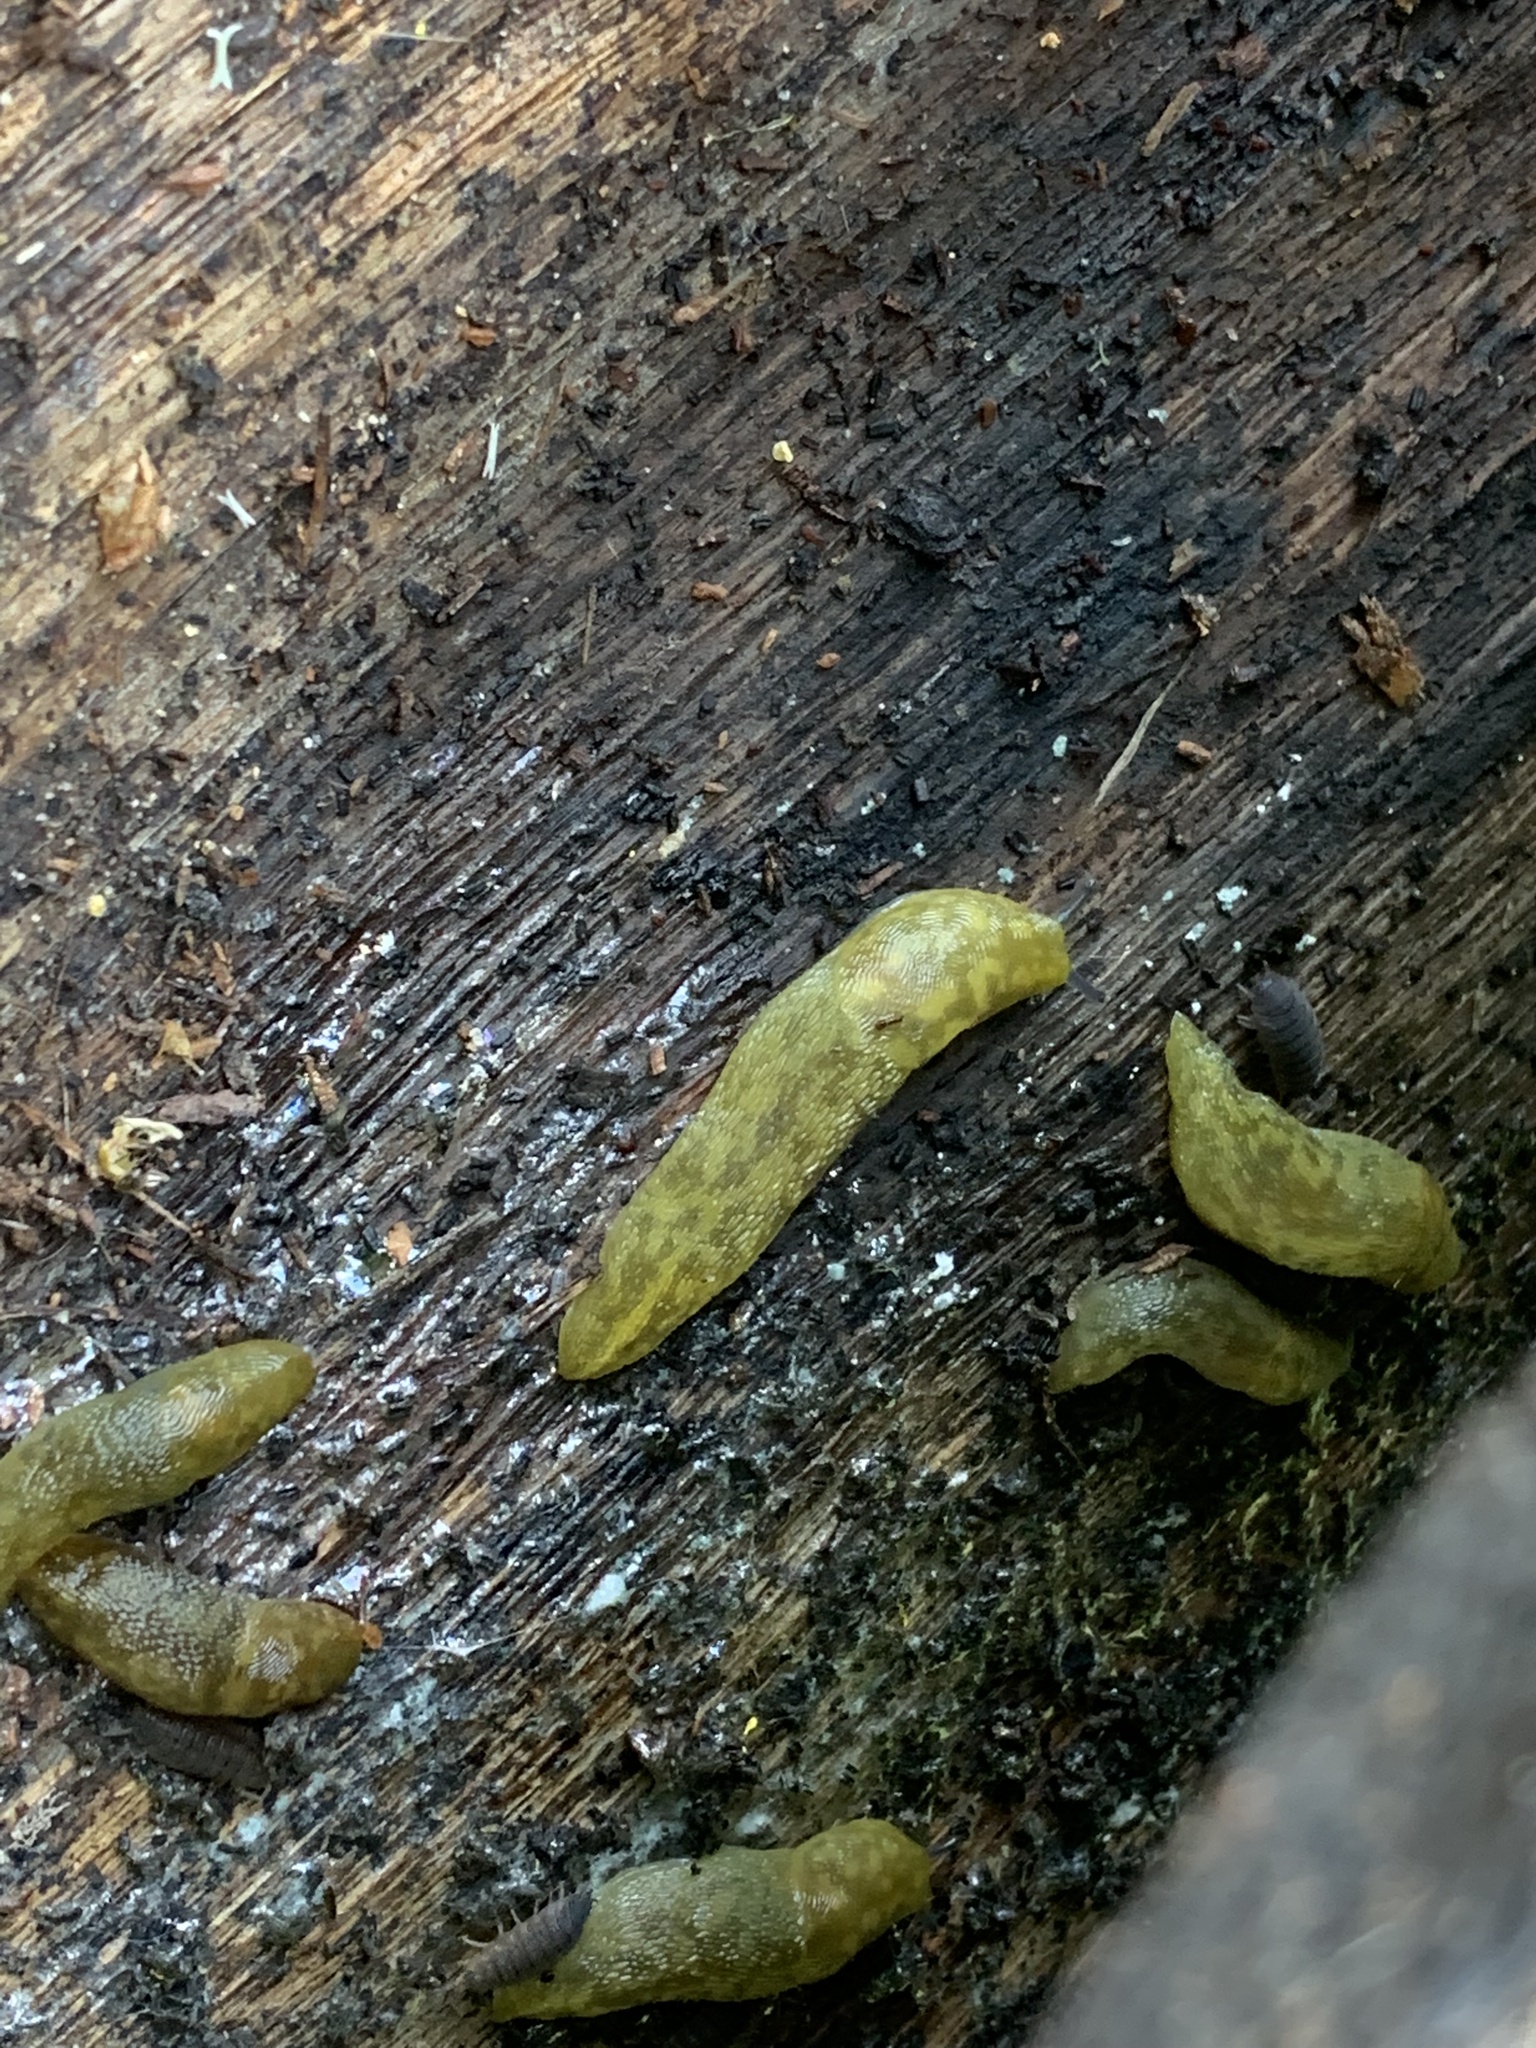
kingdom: Animalia
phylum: Mollusca
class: Gastropoda
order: Stylommatophora
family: Limacidae
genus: Limacus
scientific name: Limacus maculatus
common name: Irish yellow slug
